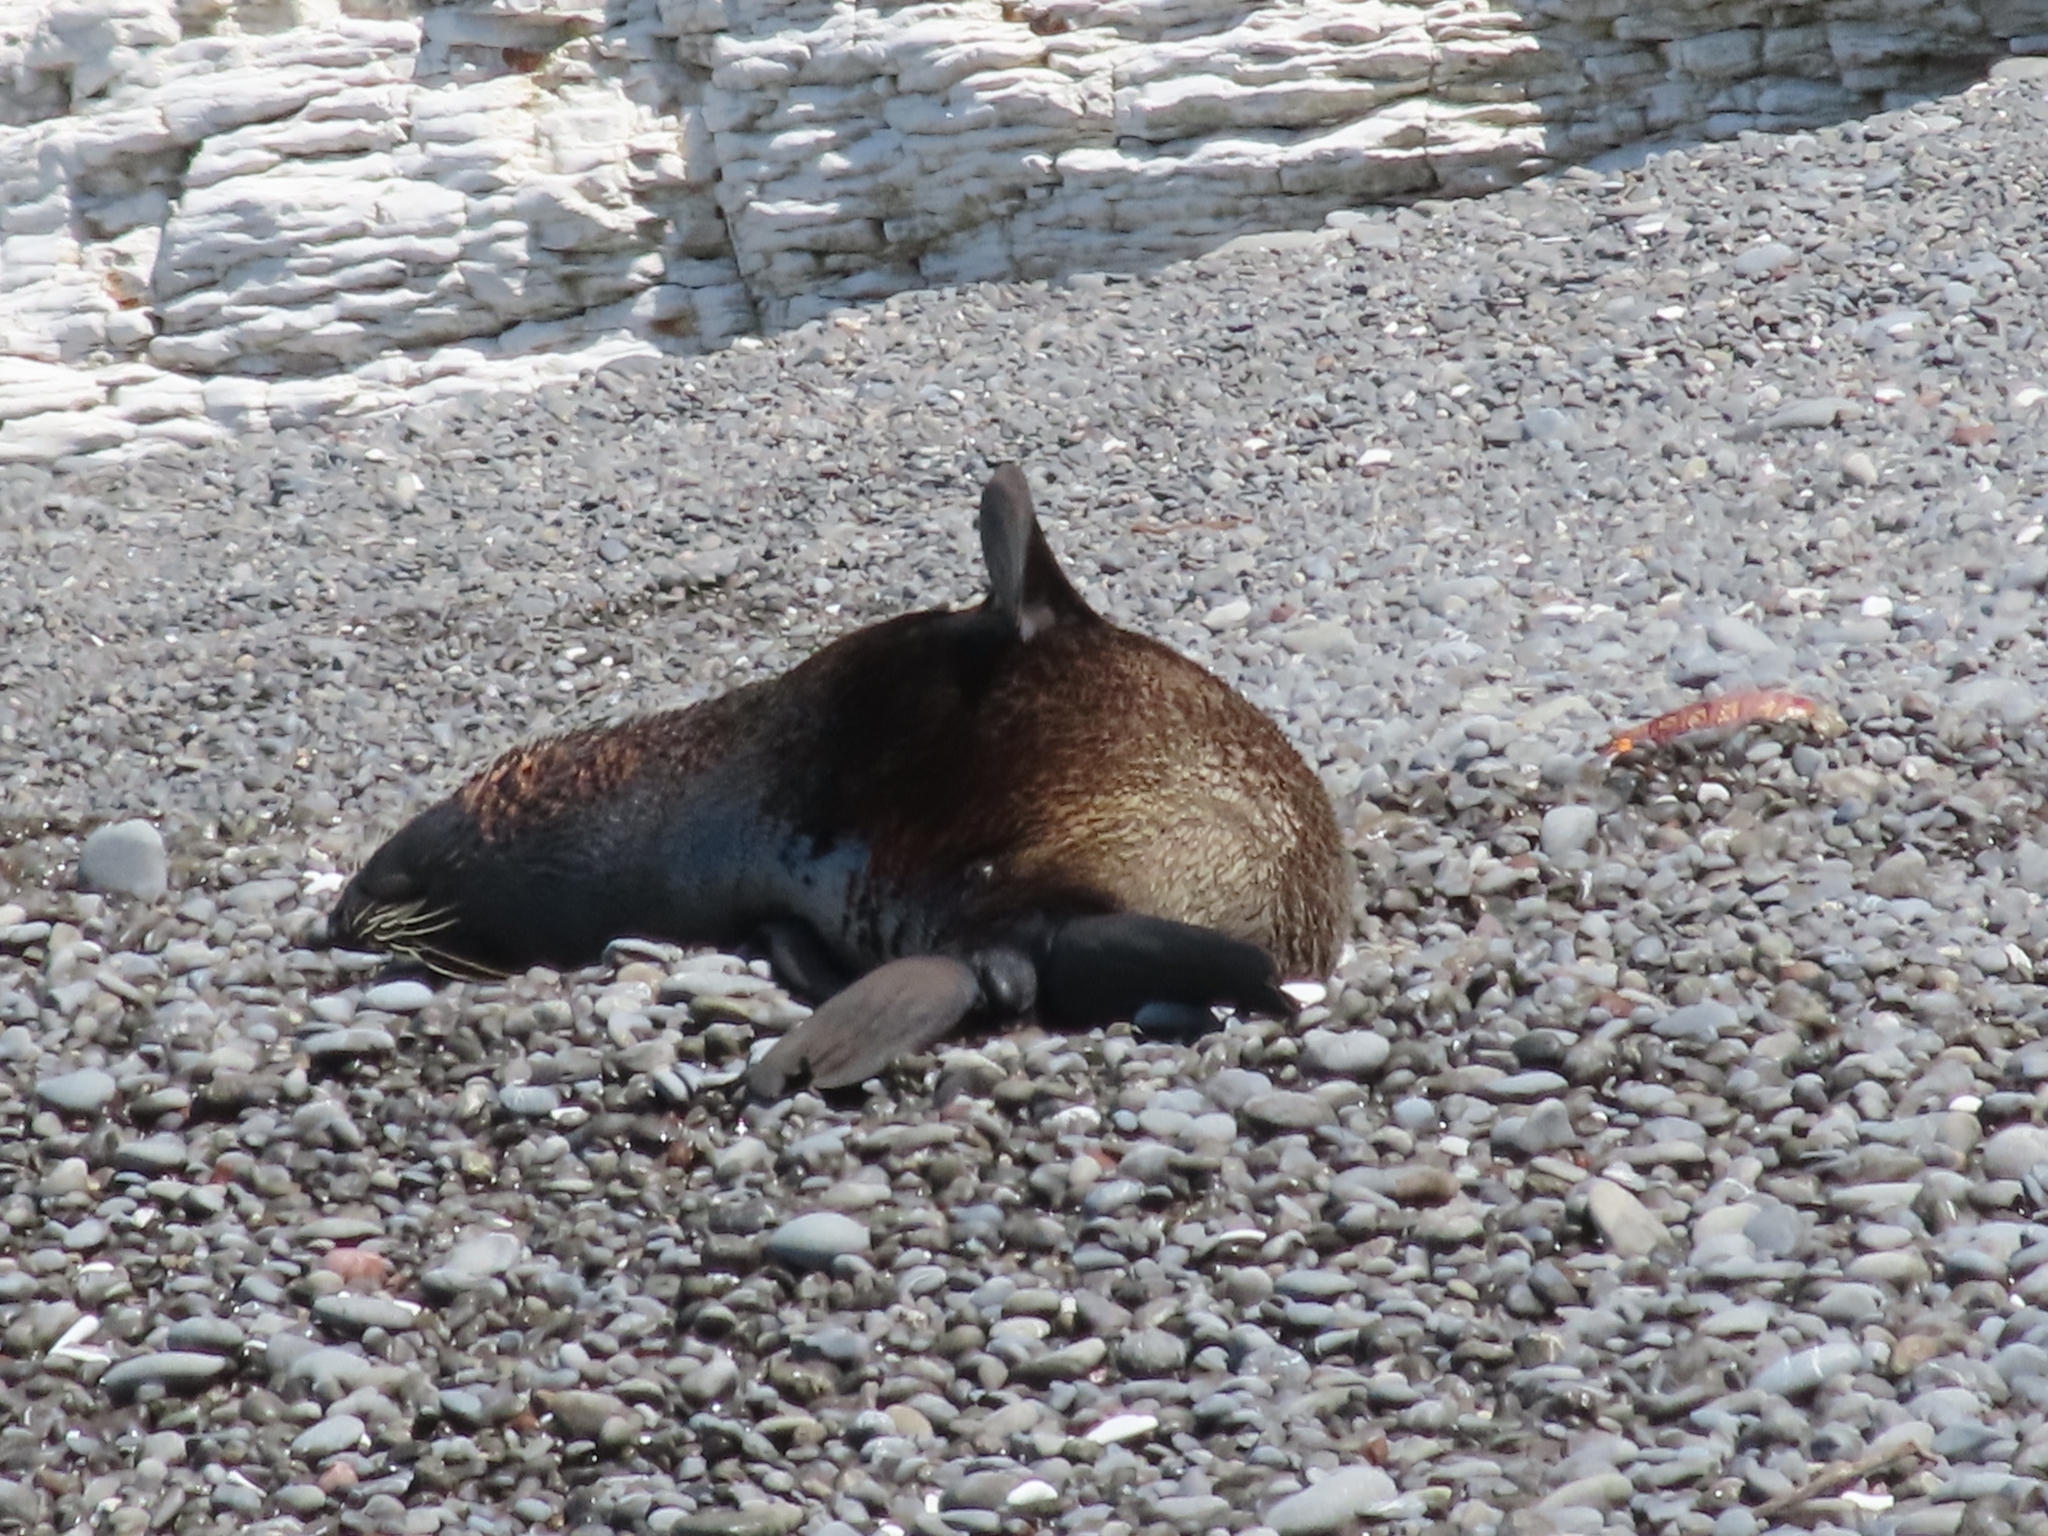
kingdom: Animalia
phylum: Chordata
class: Mammalia
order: Carnivora
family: Otariidae
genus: Arctocephalus
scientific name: Arctocephalus forsteri
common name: New zealand fur seal
